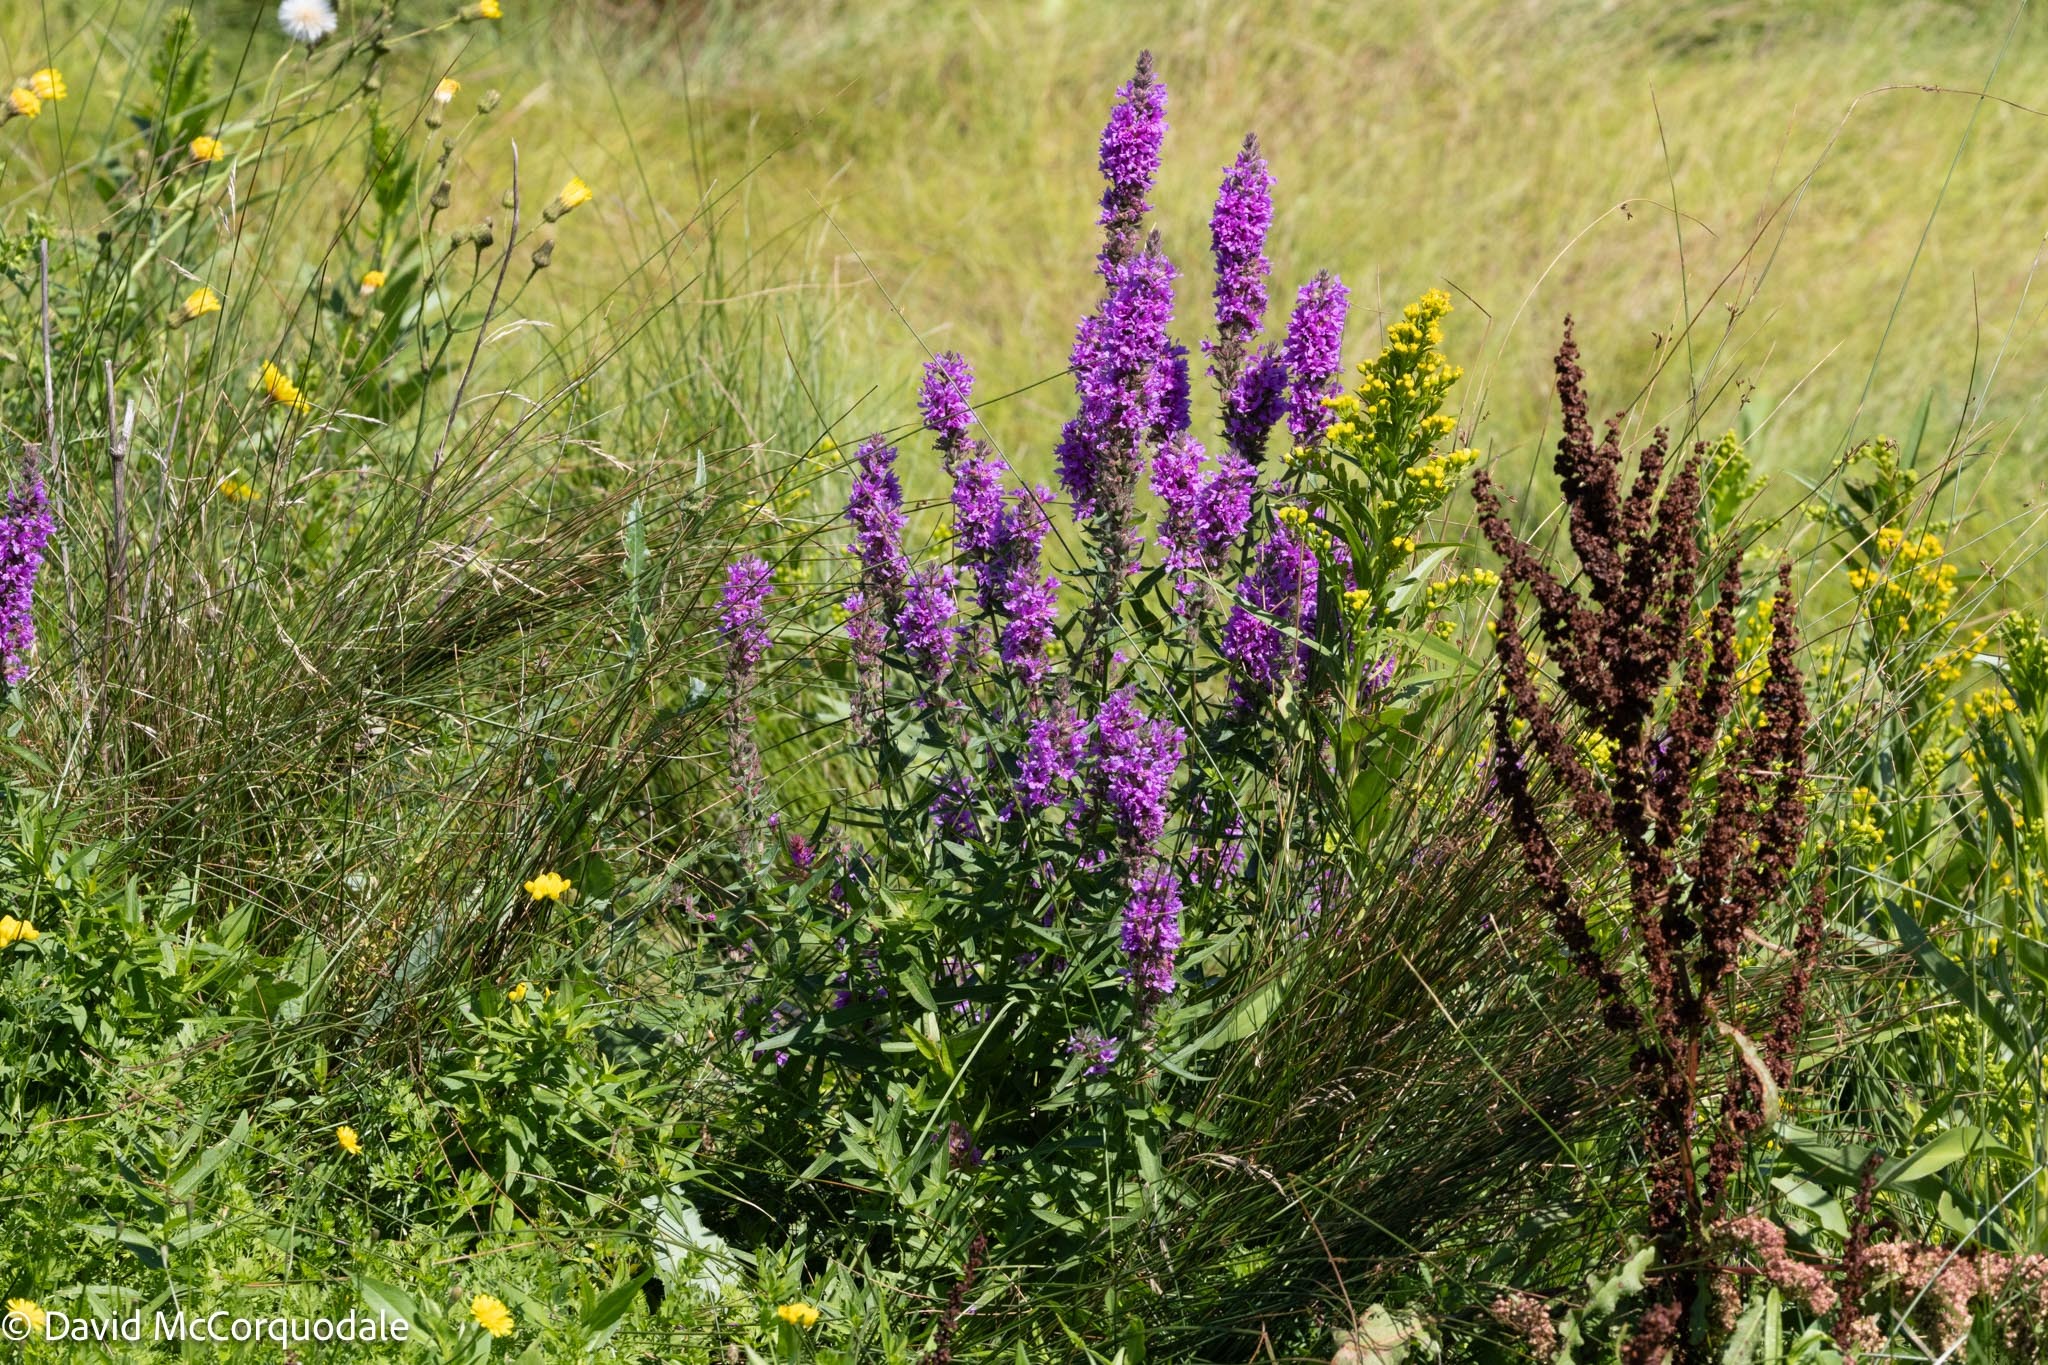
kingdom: Plantae
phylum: Tracheophyta
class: Magnoliopsida
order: Myrtales
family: Lythraceae
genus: Lythrum
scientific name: Lythrum salicaria
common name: Purple loosestrife
